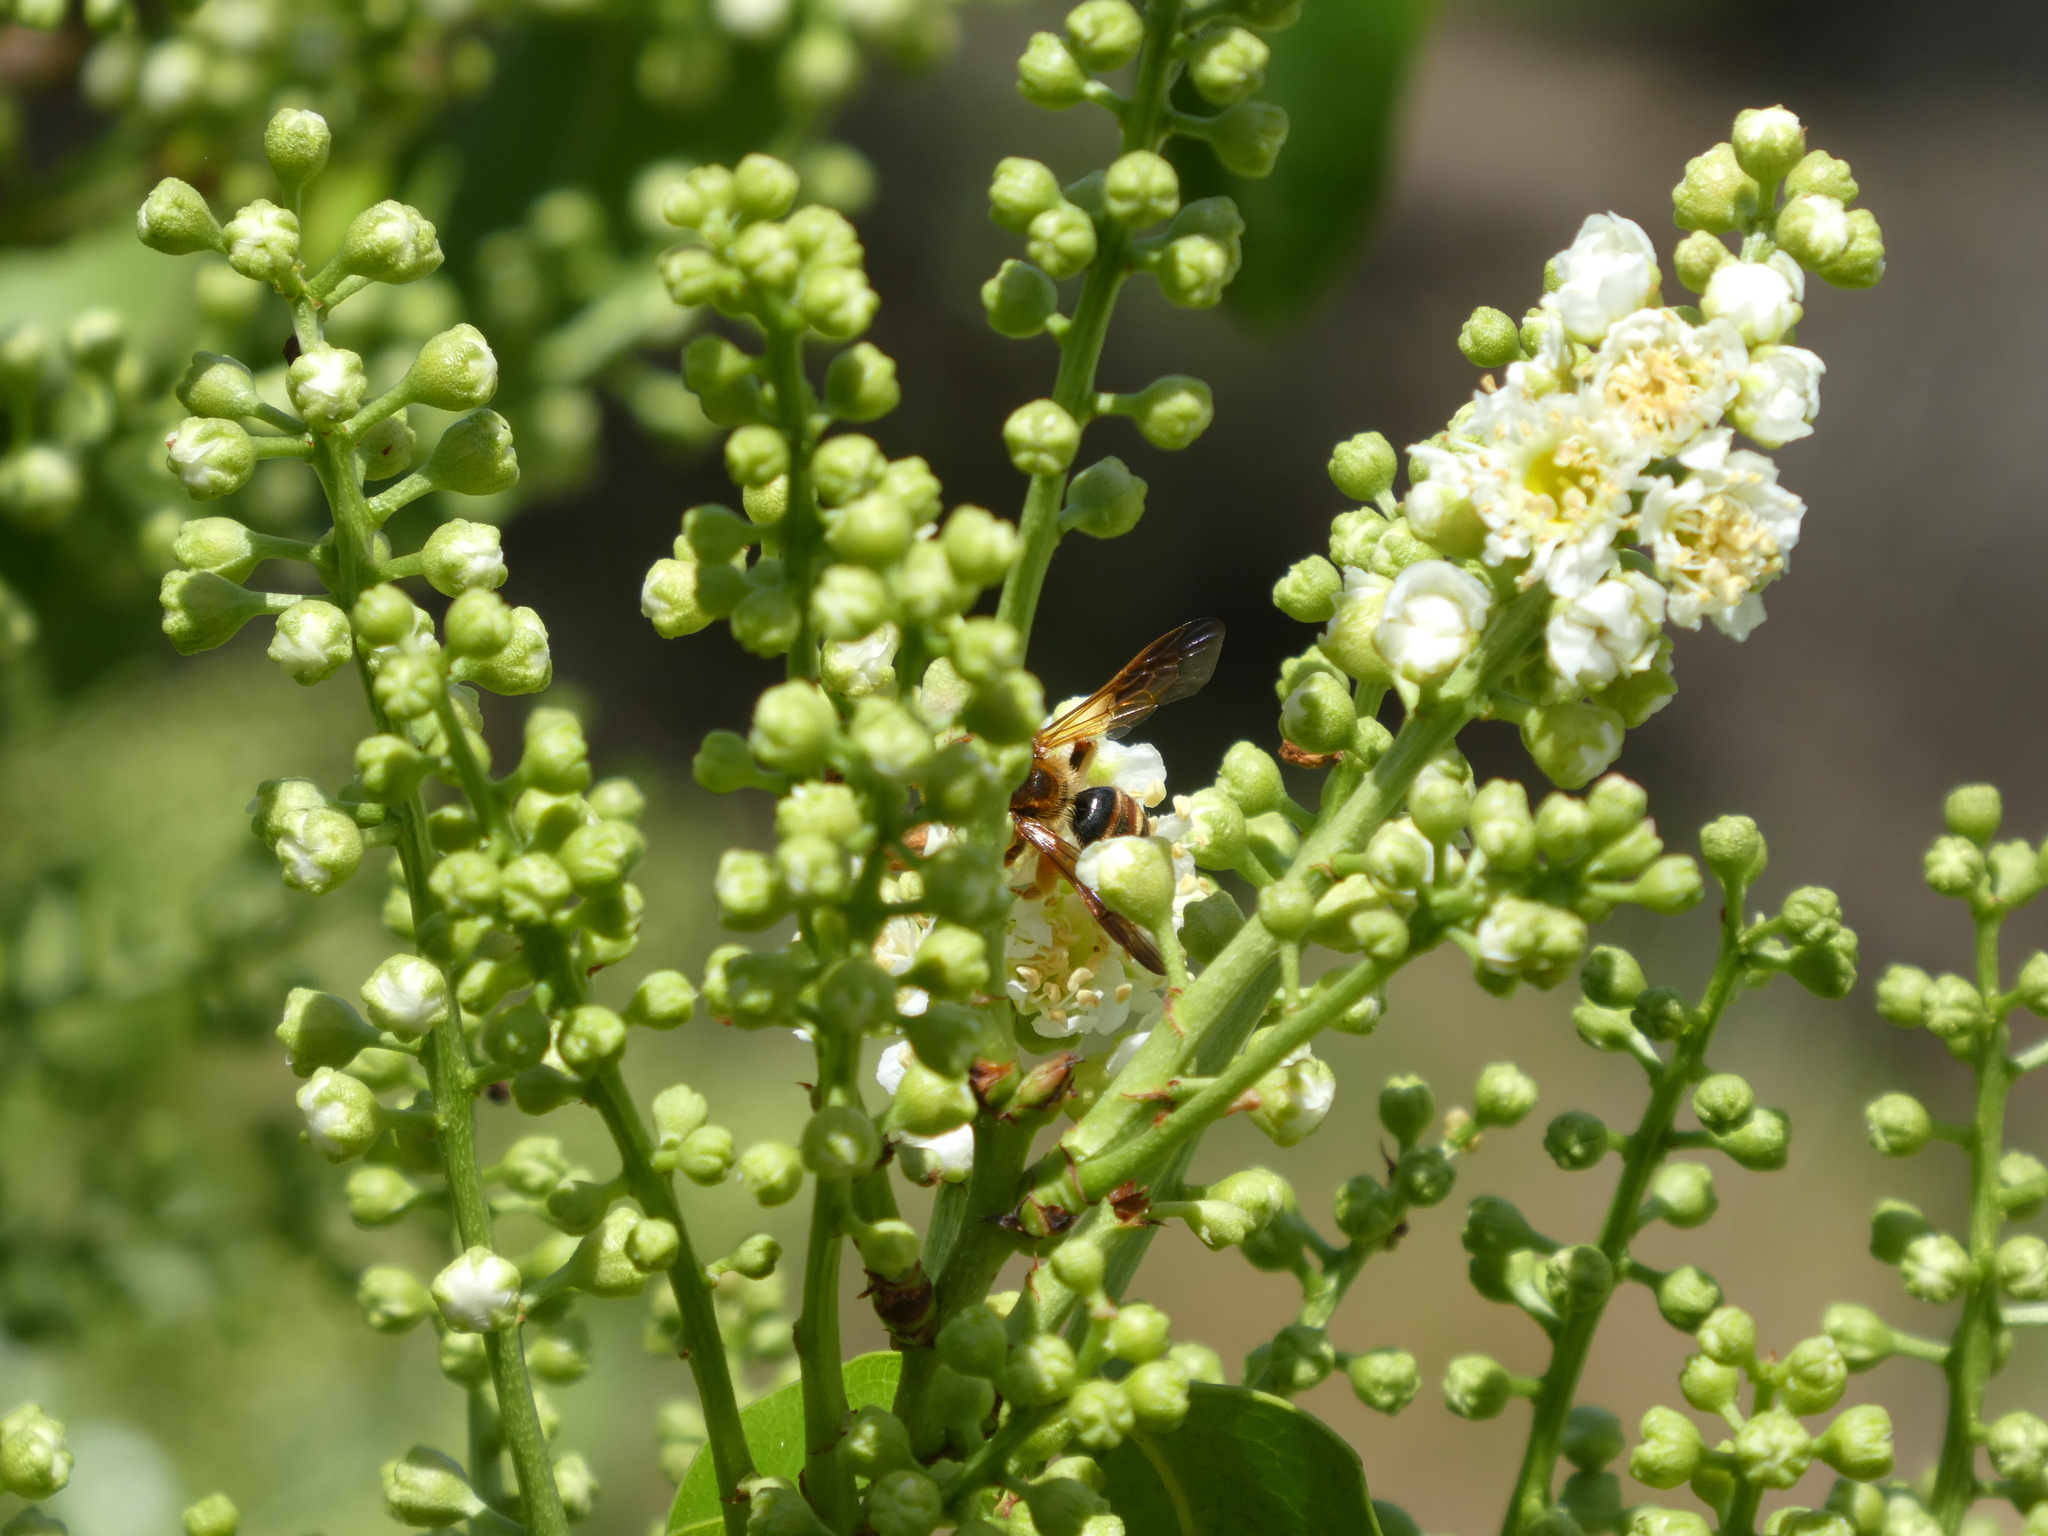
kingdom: Animalia
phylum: Arthropoda
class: Insecta
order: Hymenoptera
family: Andrenidae
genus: Andrena
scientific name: Andrena prunorum
